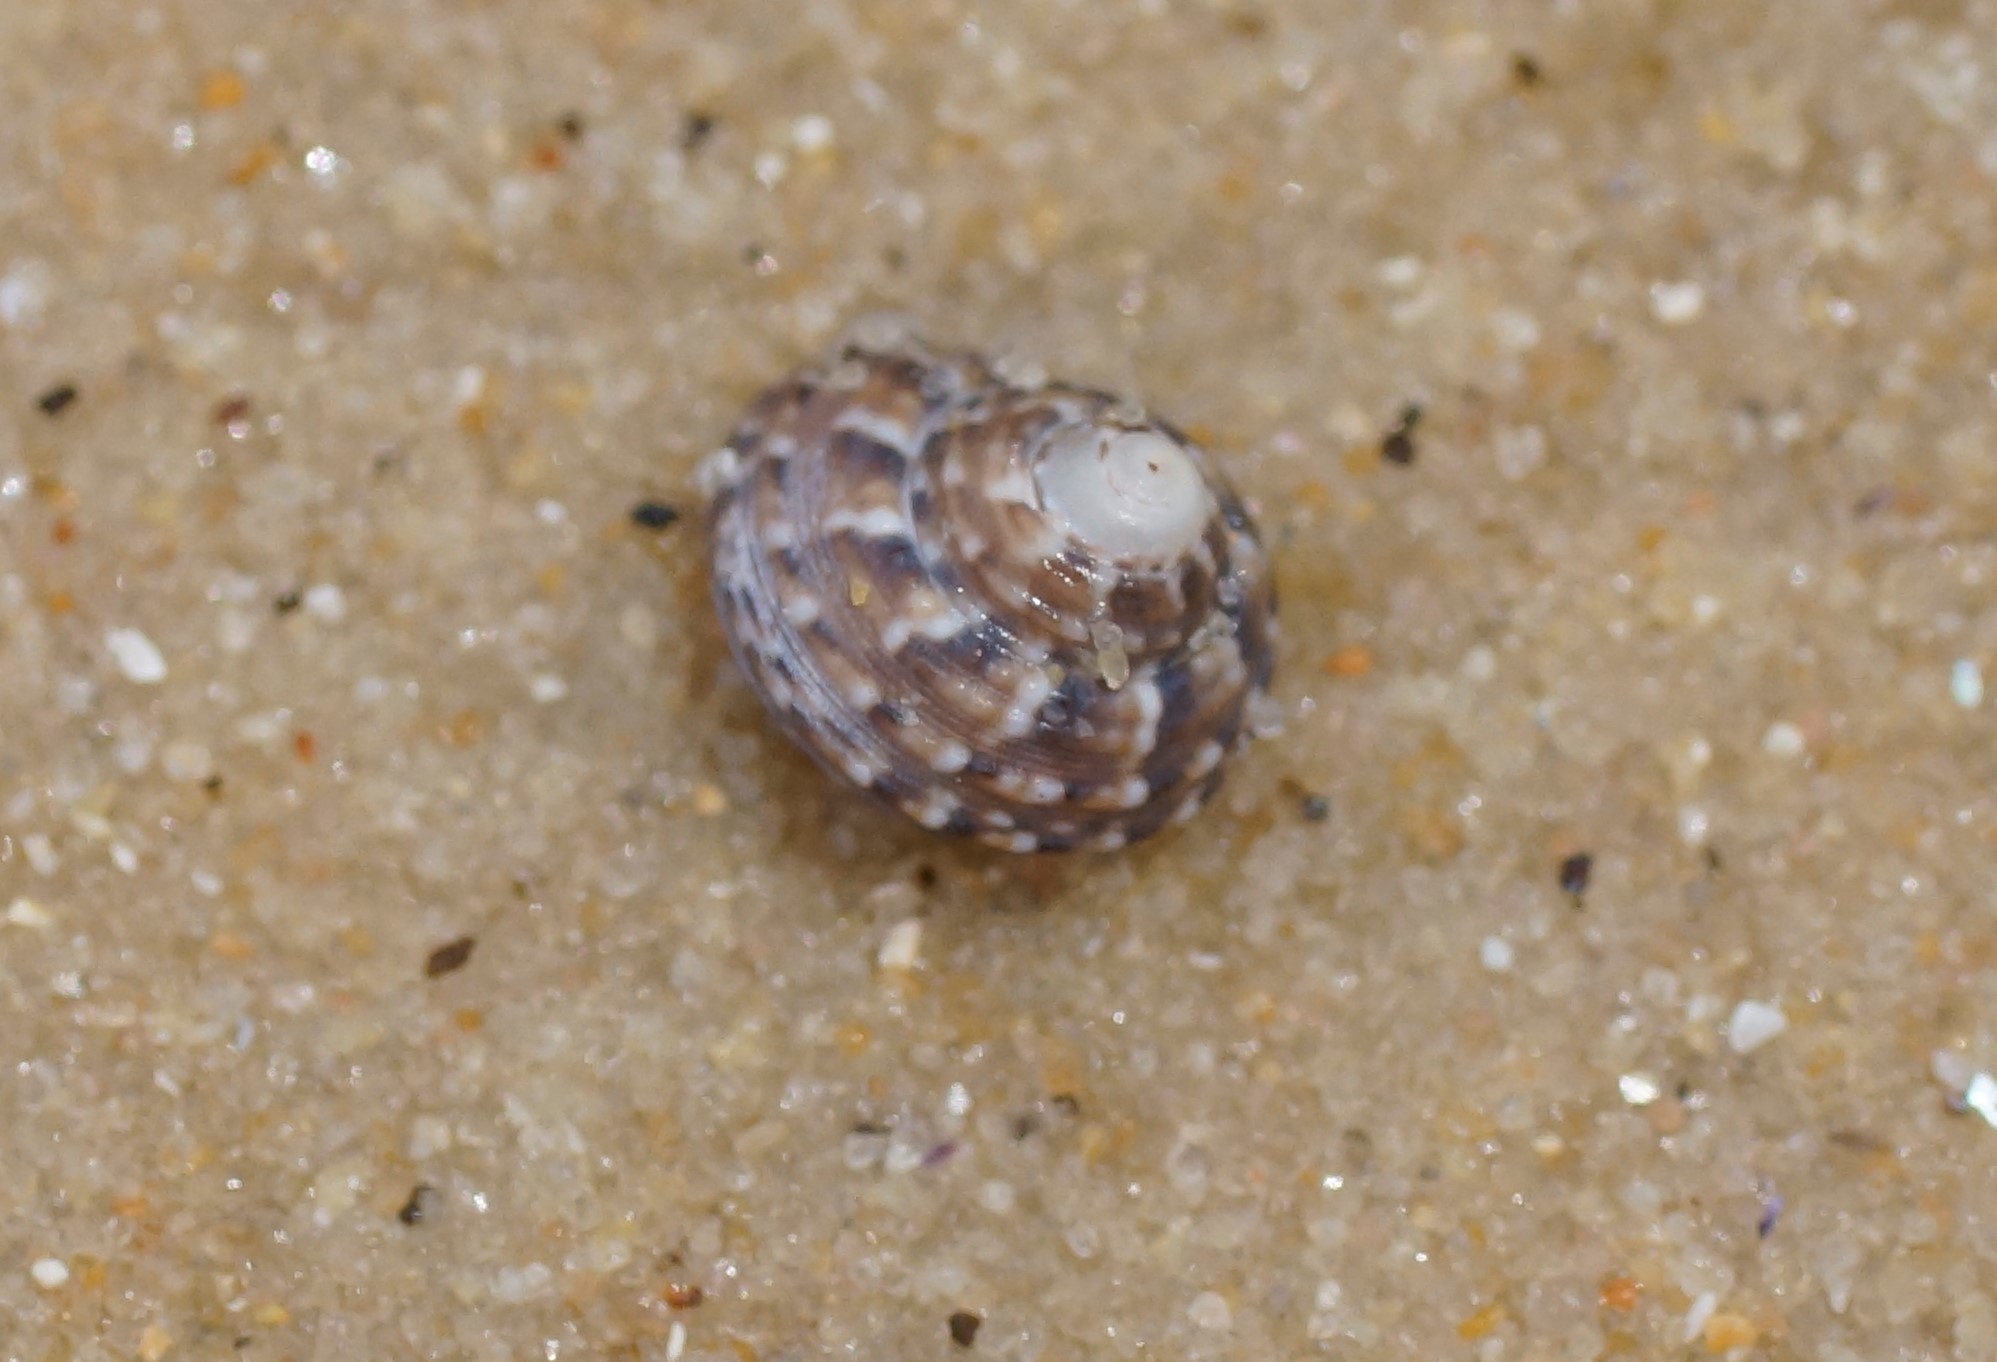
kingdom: Animalia
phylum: Mollusca
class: Gastropoda
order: Trochida
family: Trochidae
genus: Clanculus
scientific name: Clanculus plebejus
